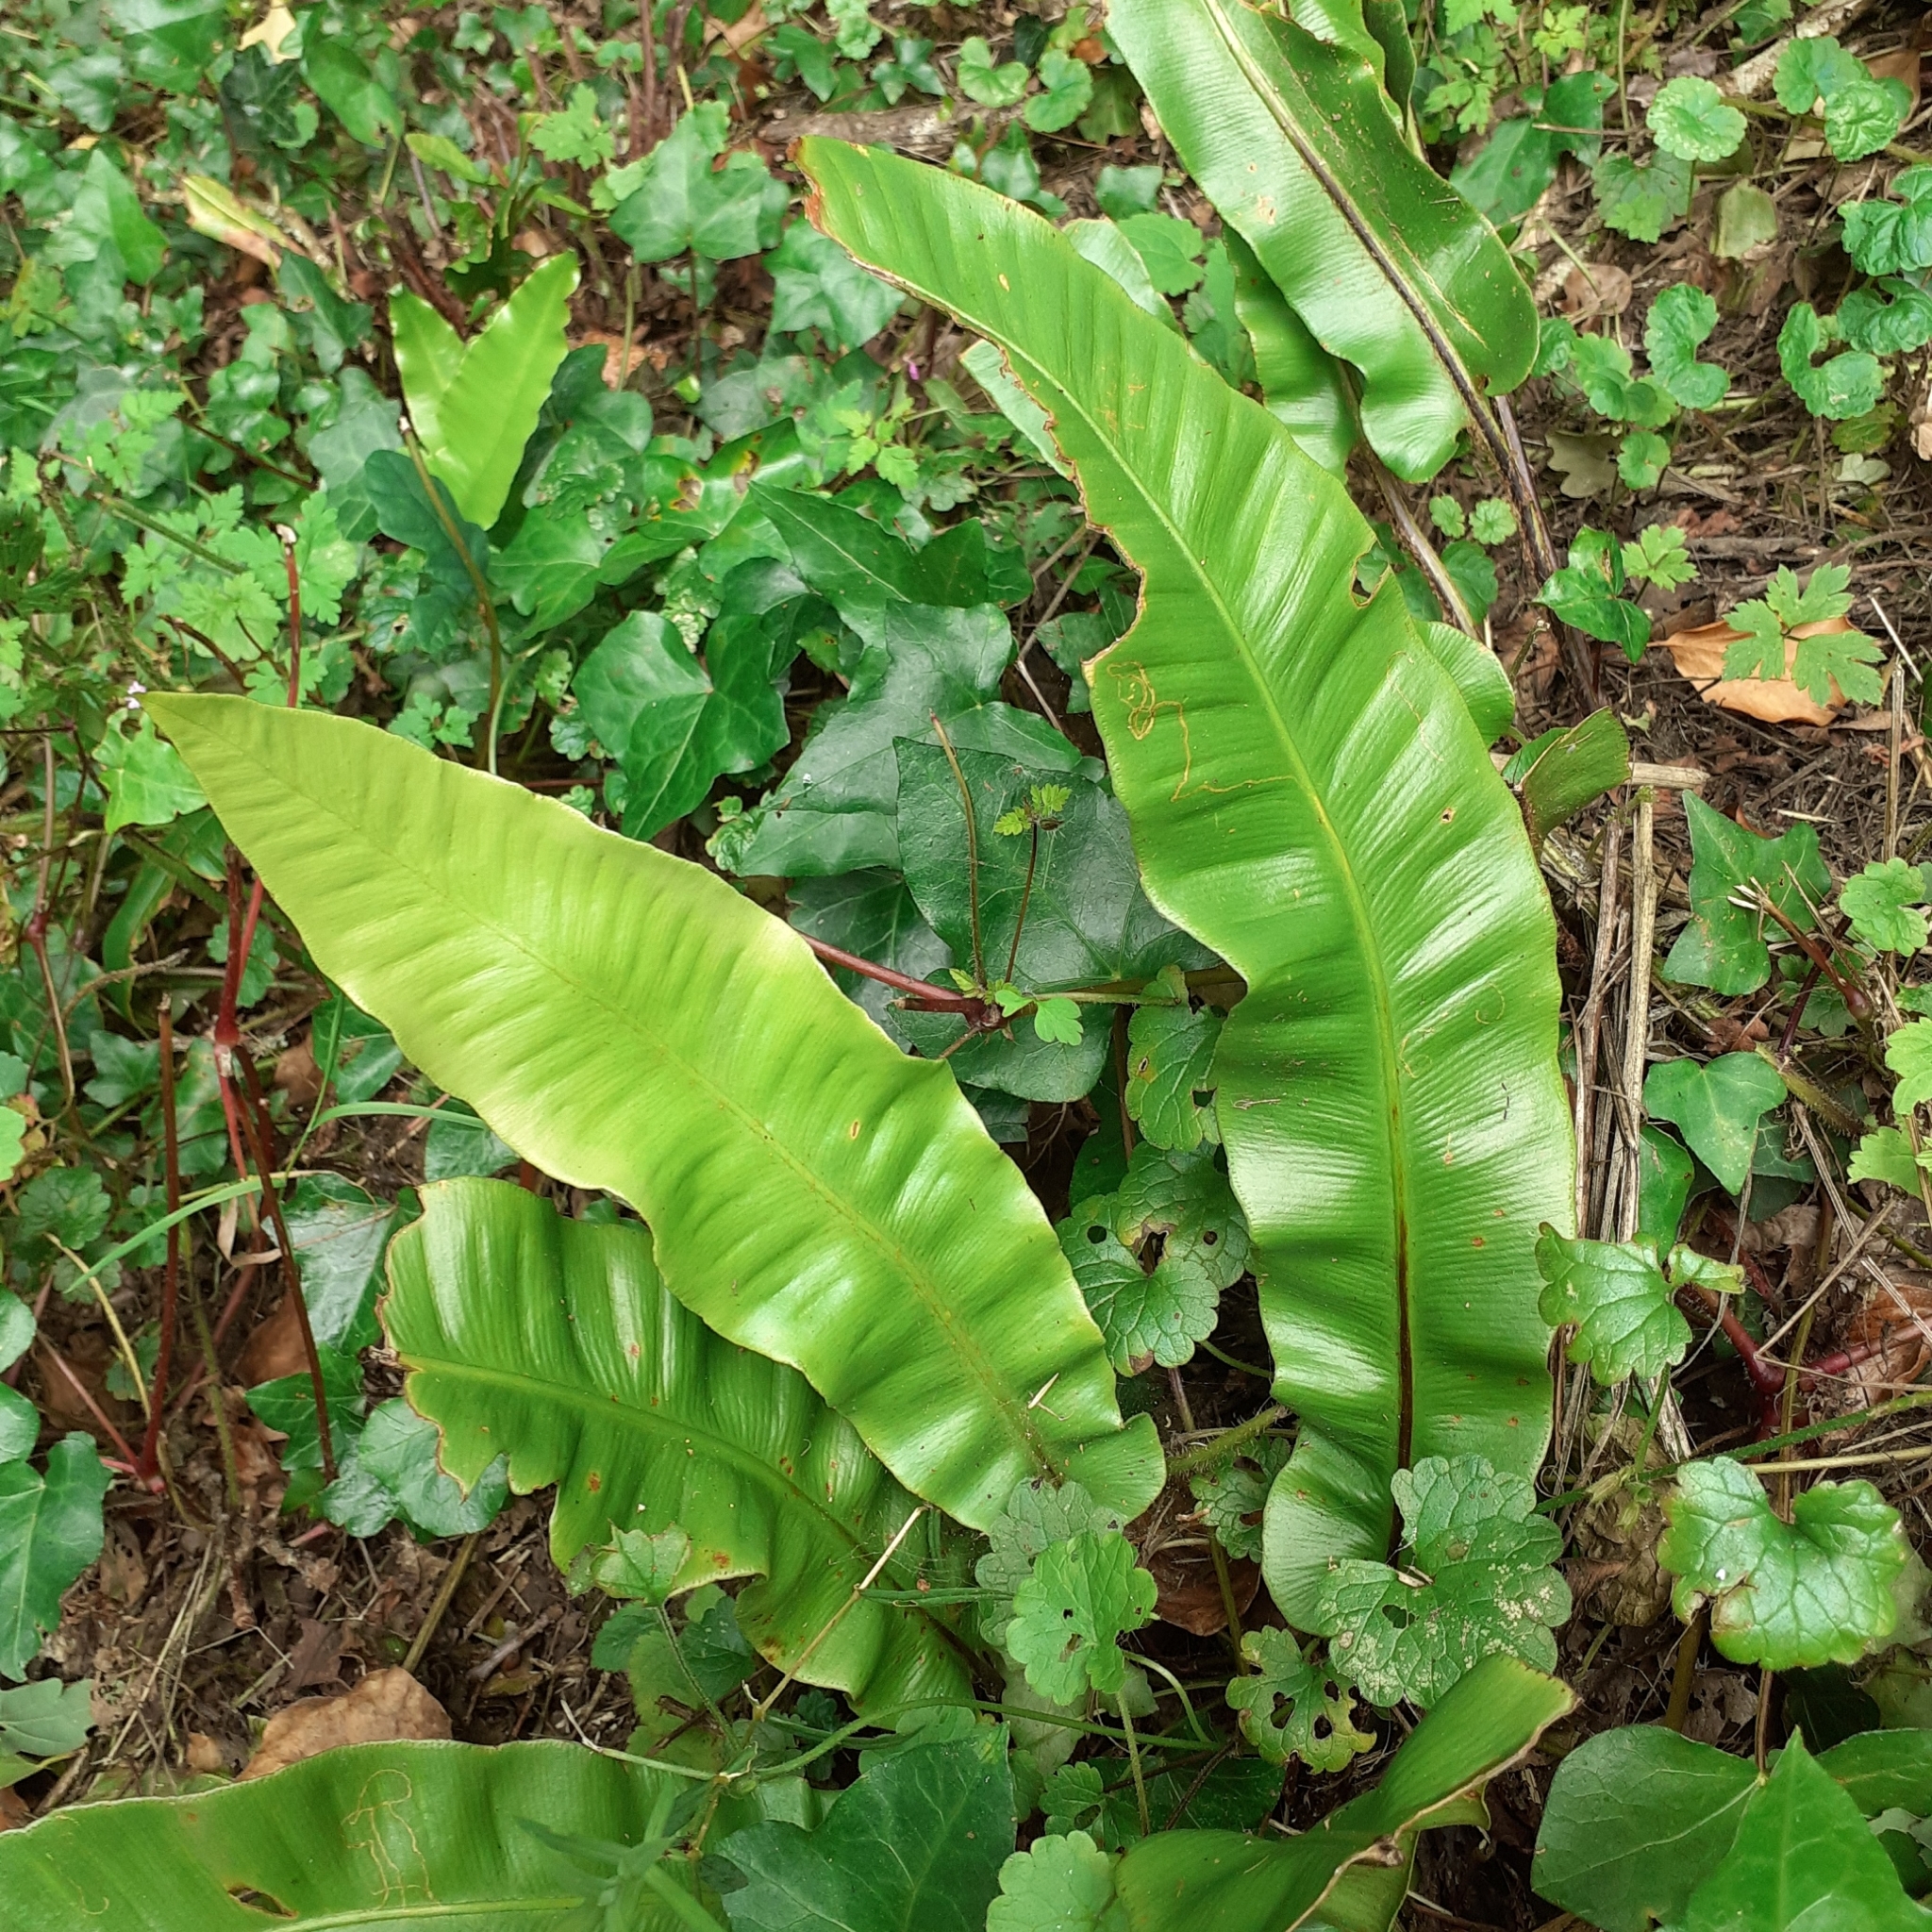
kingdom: Plantae
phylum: Tracheophyta
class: Polypodiopsida
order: Polypodiales
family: Aspleniaceae
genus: Asplenium
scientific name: Asplenium scolopendrium
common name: Hart's-tongue fern
